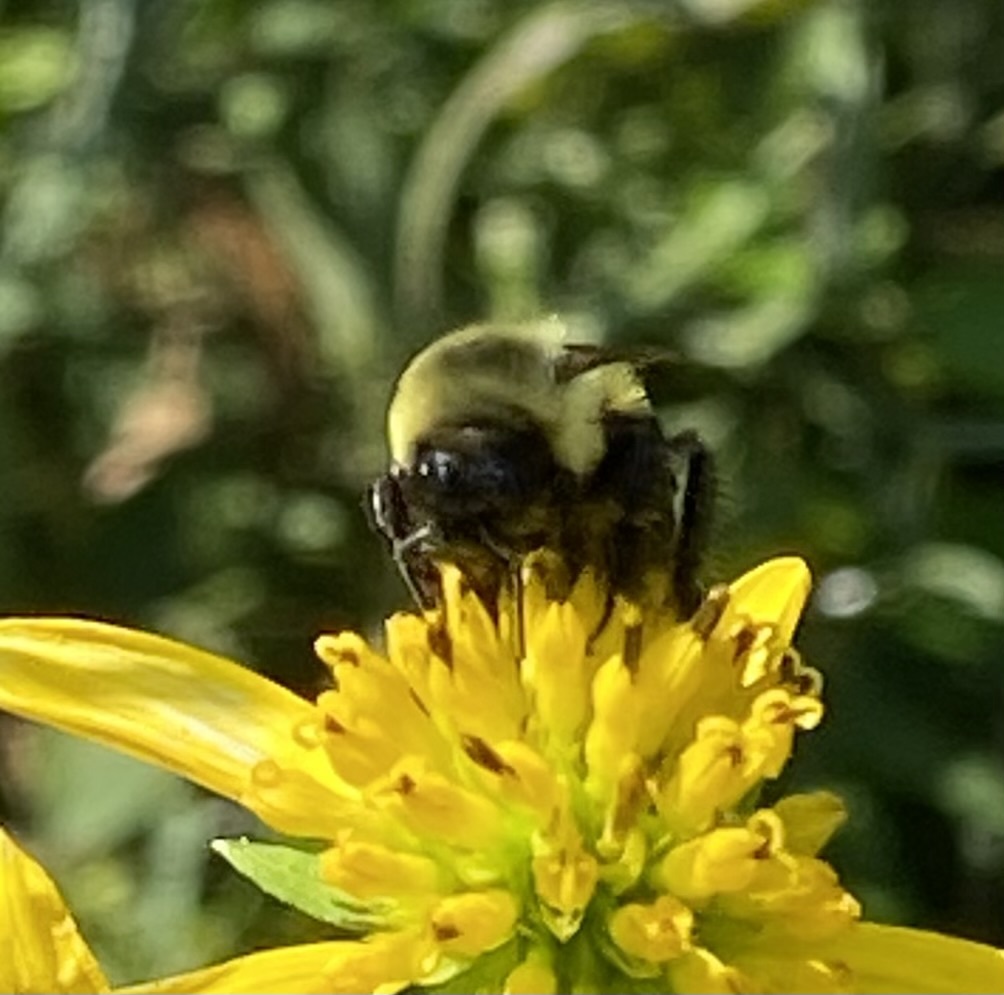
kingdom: Animalia
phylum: Arthropoda
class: Insecta
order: Hymenoptera
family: Apidae
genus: Bombus
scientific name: Bombus impatiens
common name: Common eastern bumble bee
